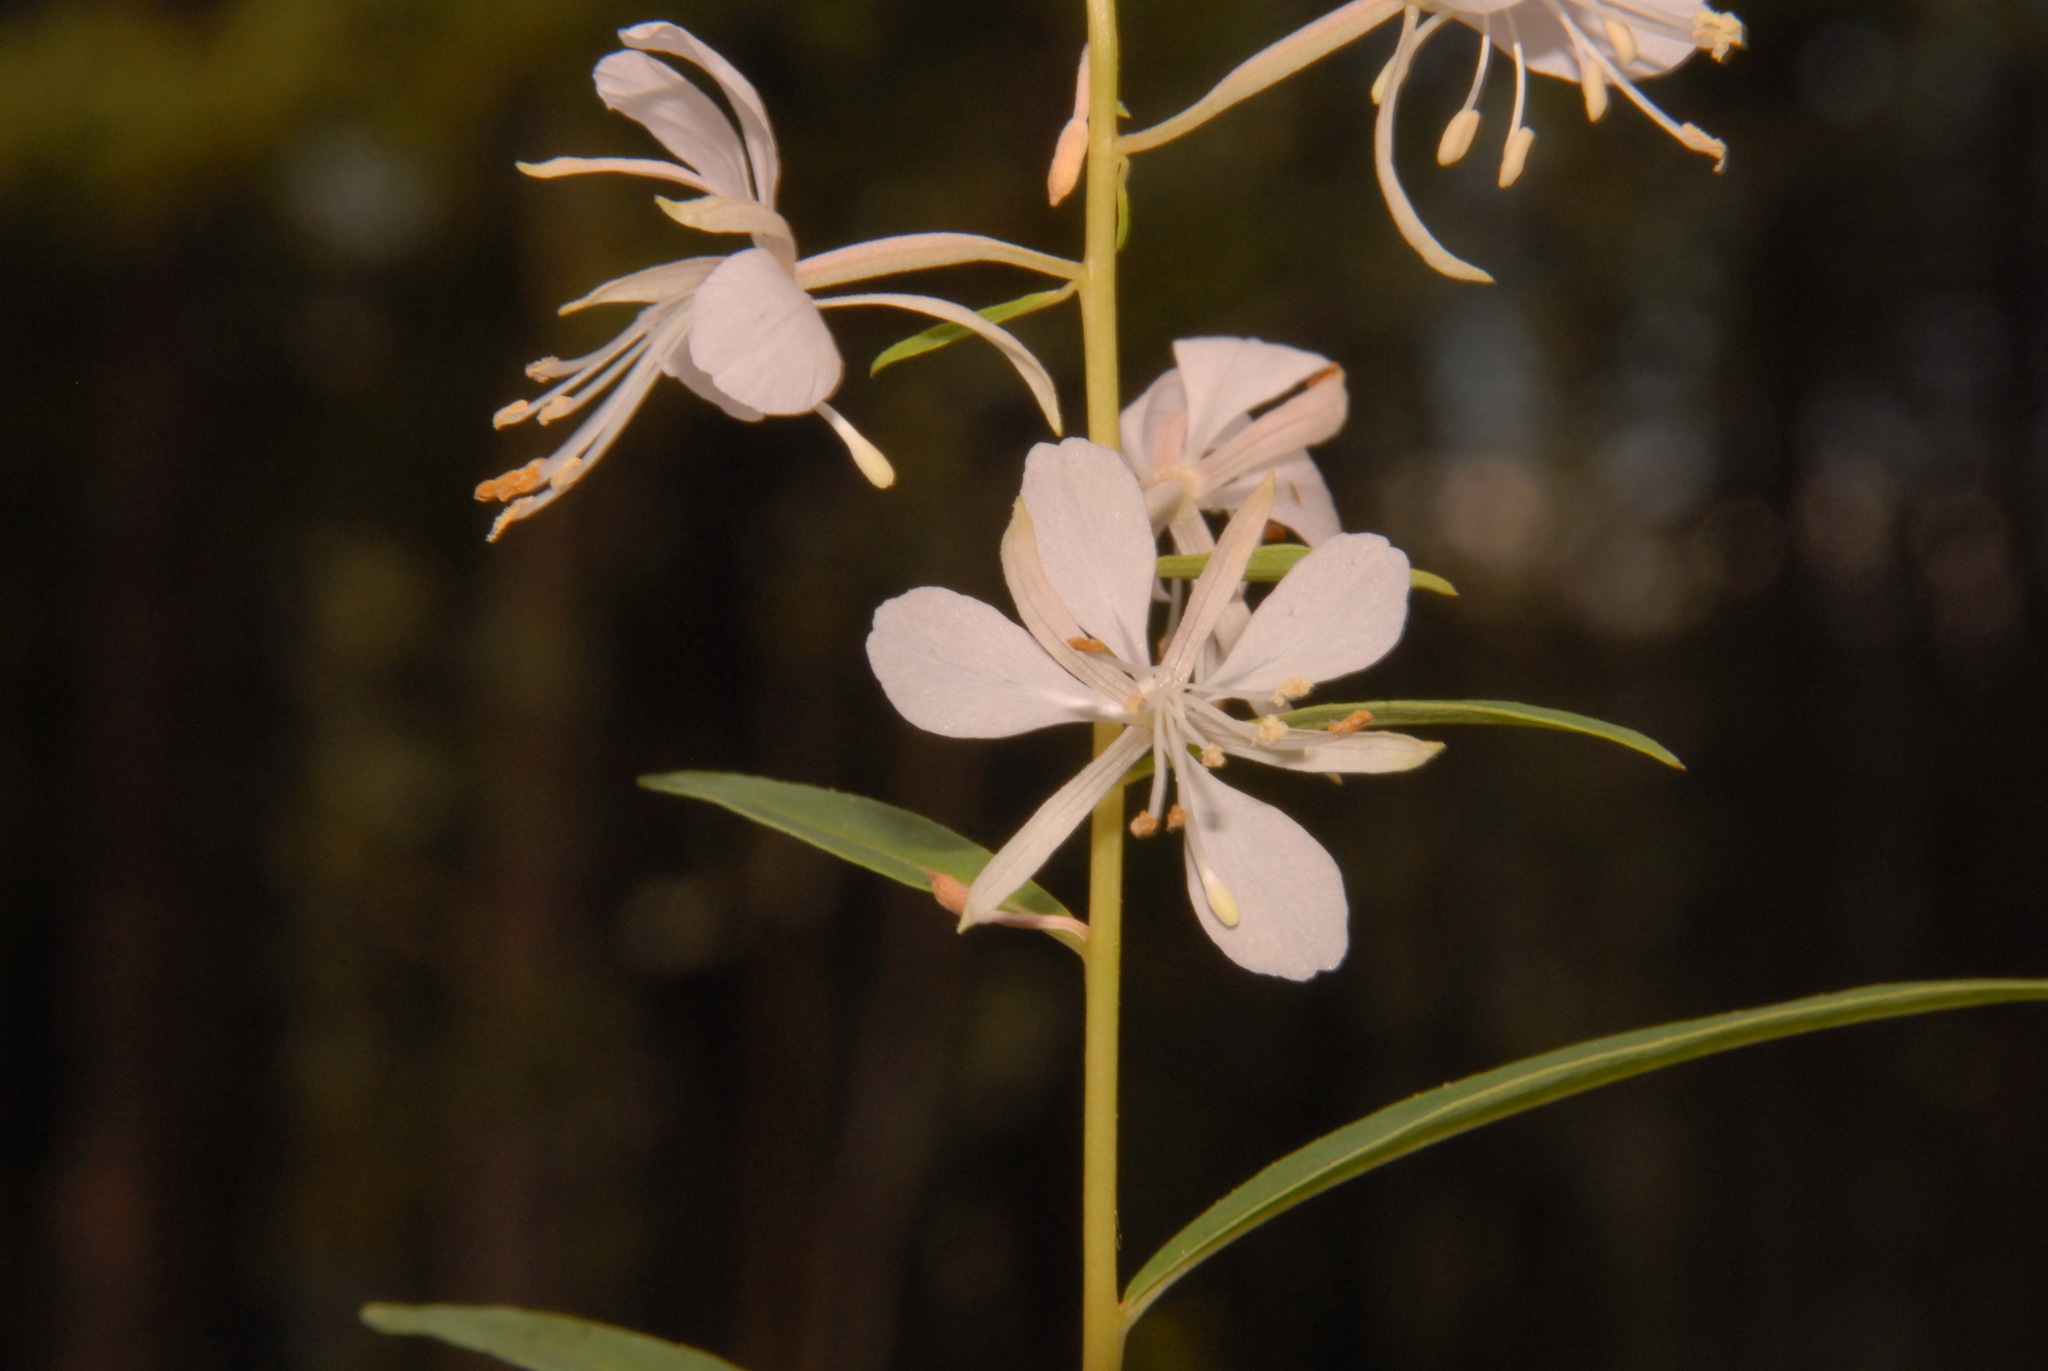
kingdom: Plantae
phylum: Tracheophyta
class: Magnoliopsida
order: Myrtales
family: Onagraceae
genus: Chamaenerion
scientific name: Chamaenerion angustifolium
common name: Fireweed
